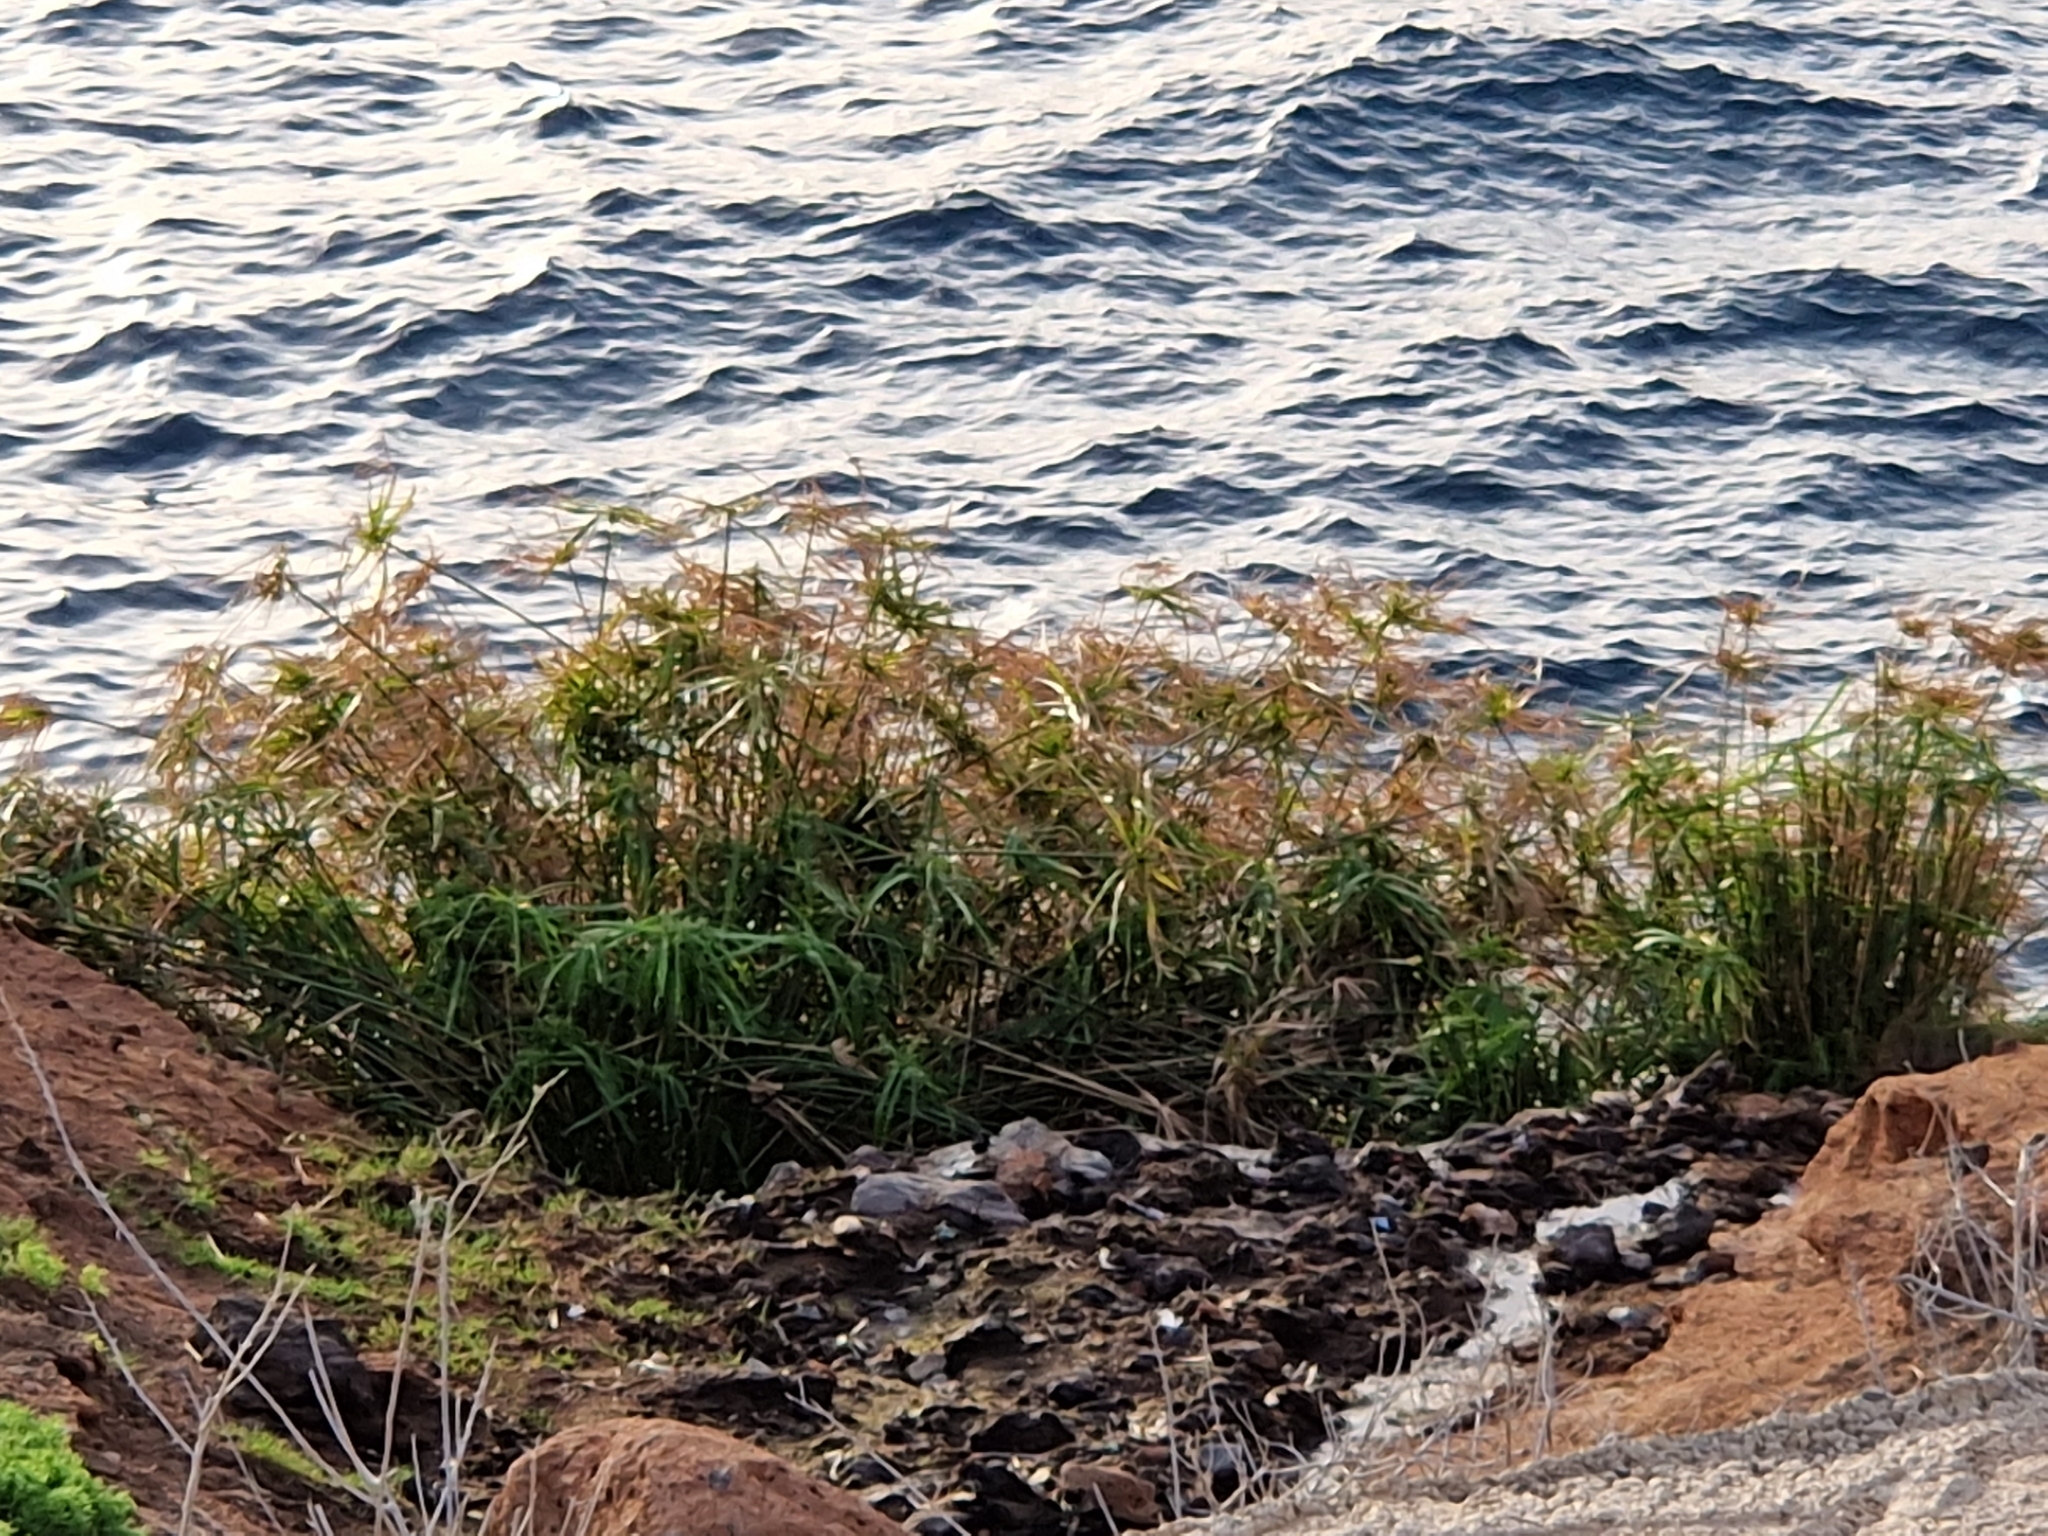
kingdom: Plantae
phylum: Tracheophyta
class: Liliopsida
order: Poales
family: Cyperaceae
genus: Cyperus
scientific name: Cyperus alternifolius
